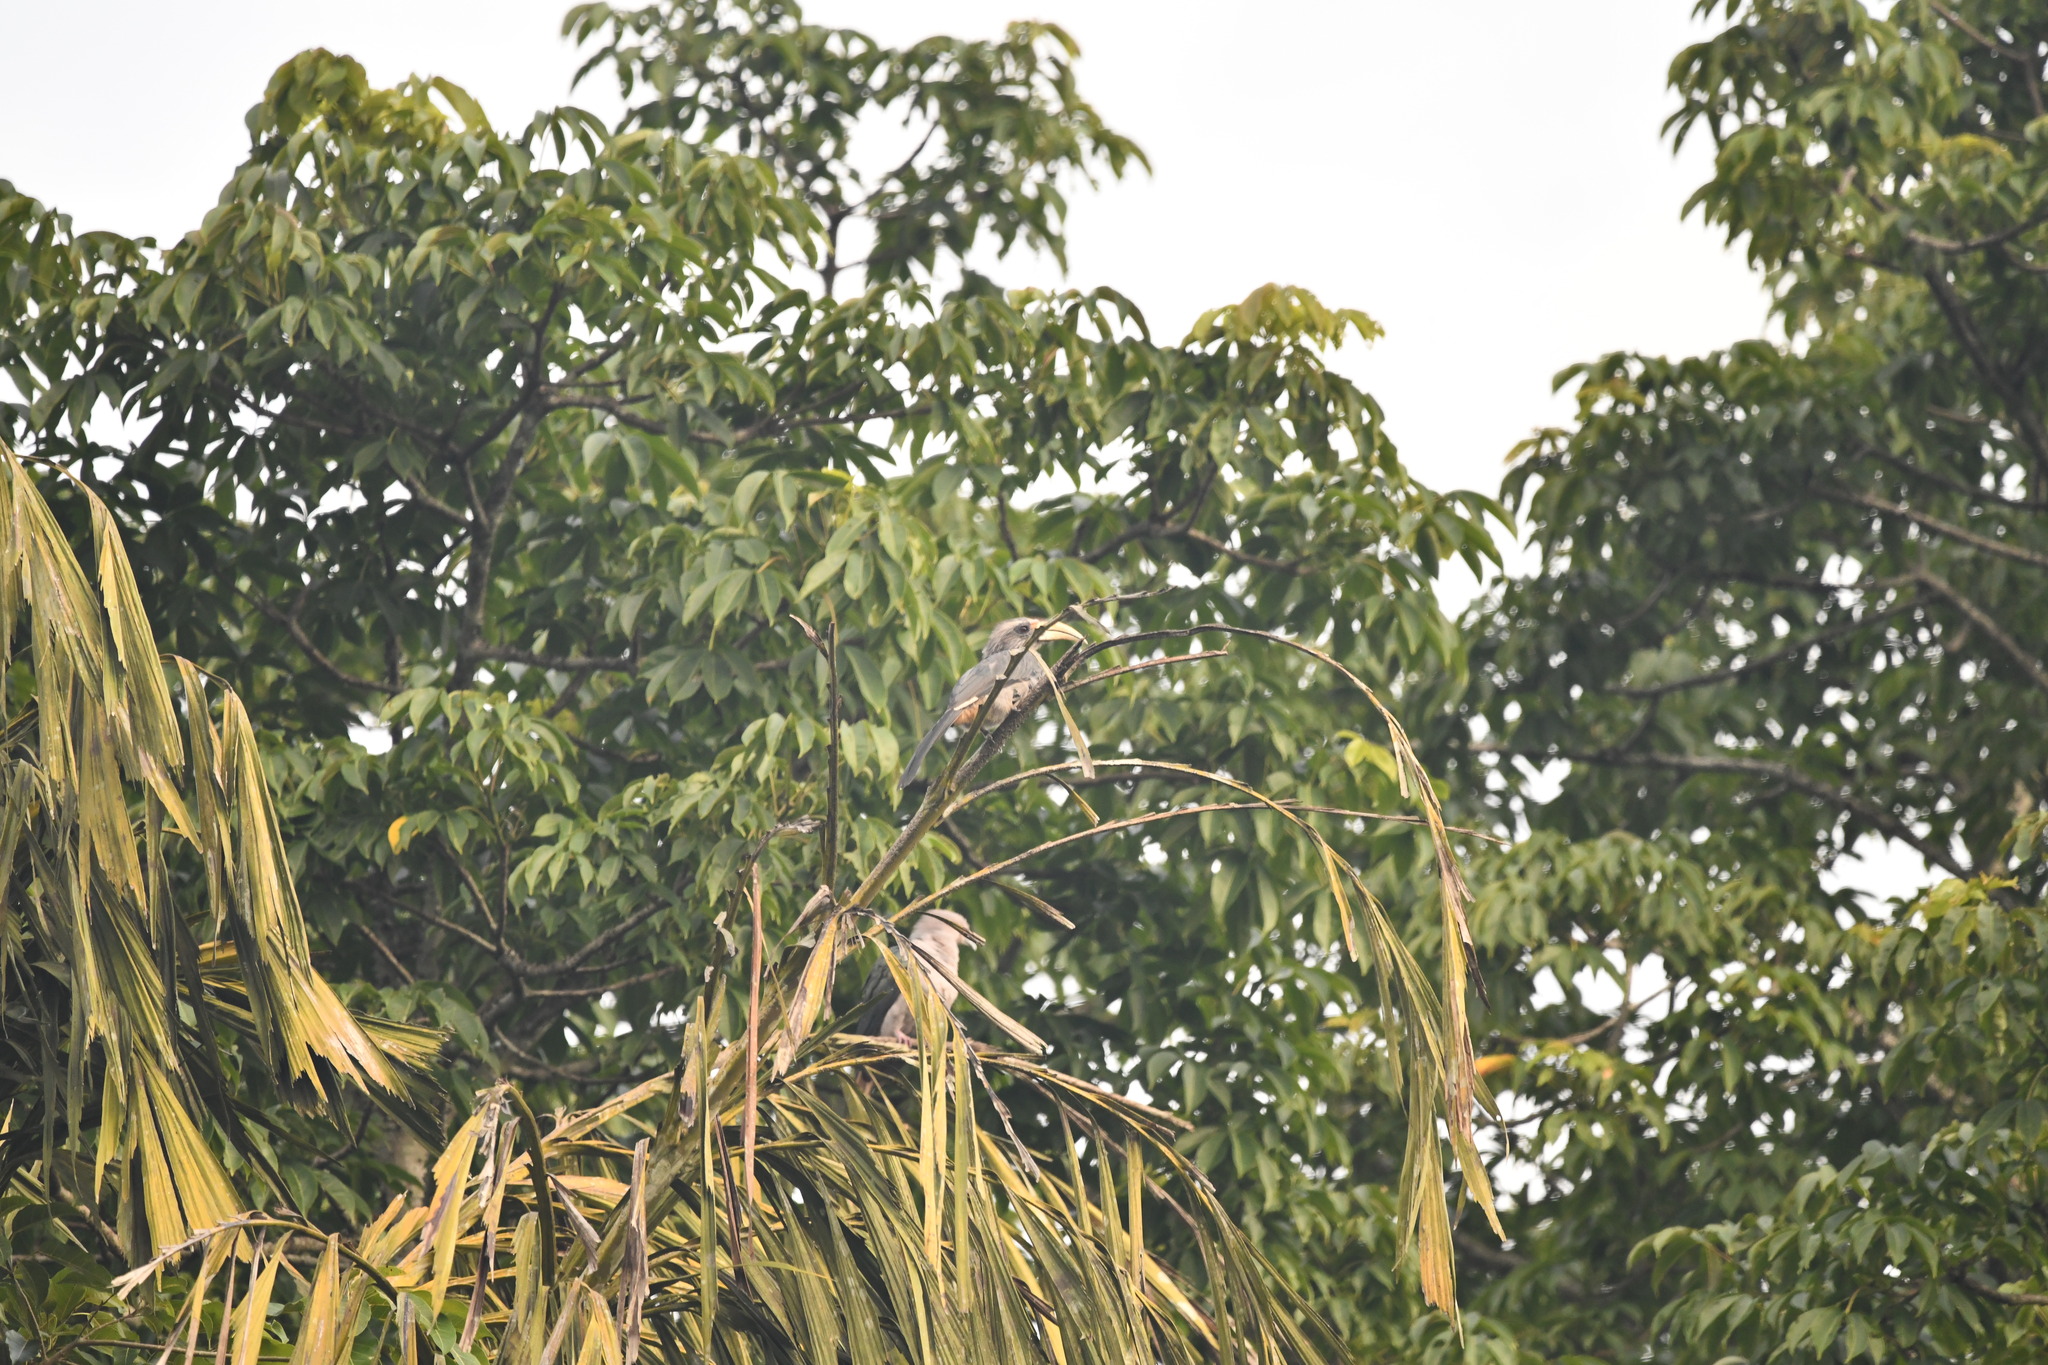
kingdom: Animalia
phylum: Chordata
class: Aves
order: Bucerotiformes
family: Bucerotidae
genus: Ocyceros
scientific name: Ocyceros griseus
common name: Malabar grey hornbill
